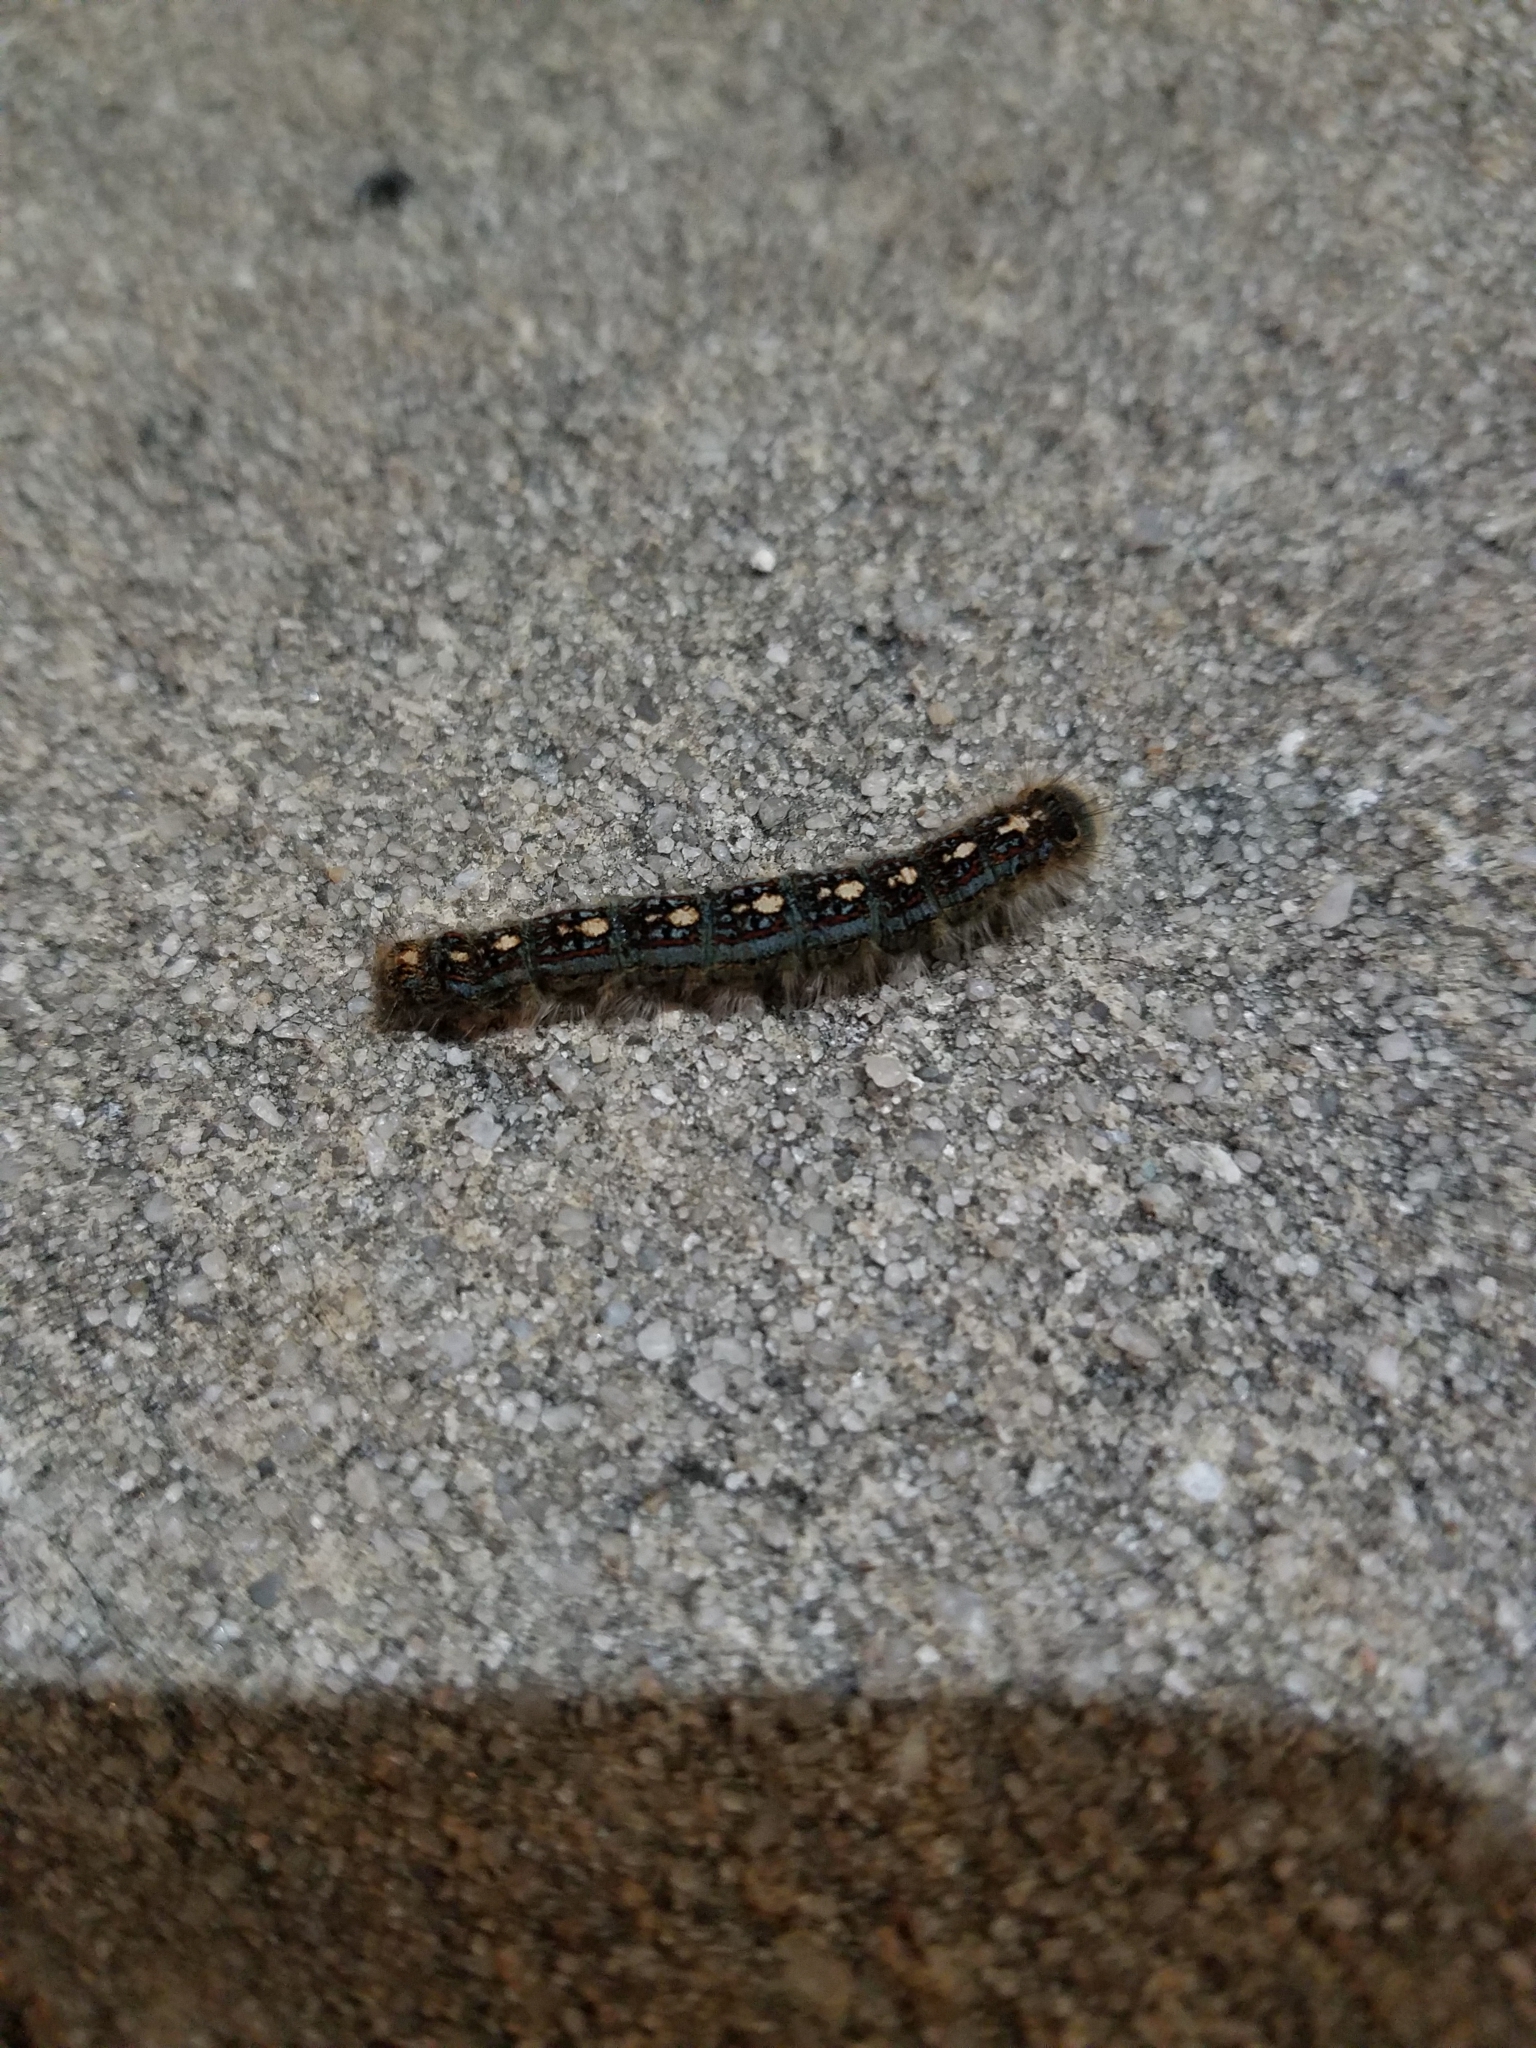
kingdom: Animalia
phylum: Arthropoda
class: Insecta
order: Lepidoptera
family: Lasiocampidae
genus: Malacosoma
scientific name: Malacosoma disstria
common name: Forest tent caterpillar
